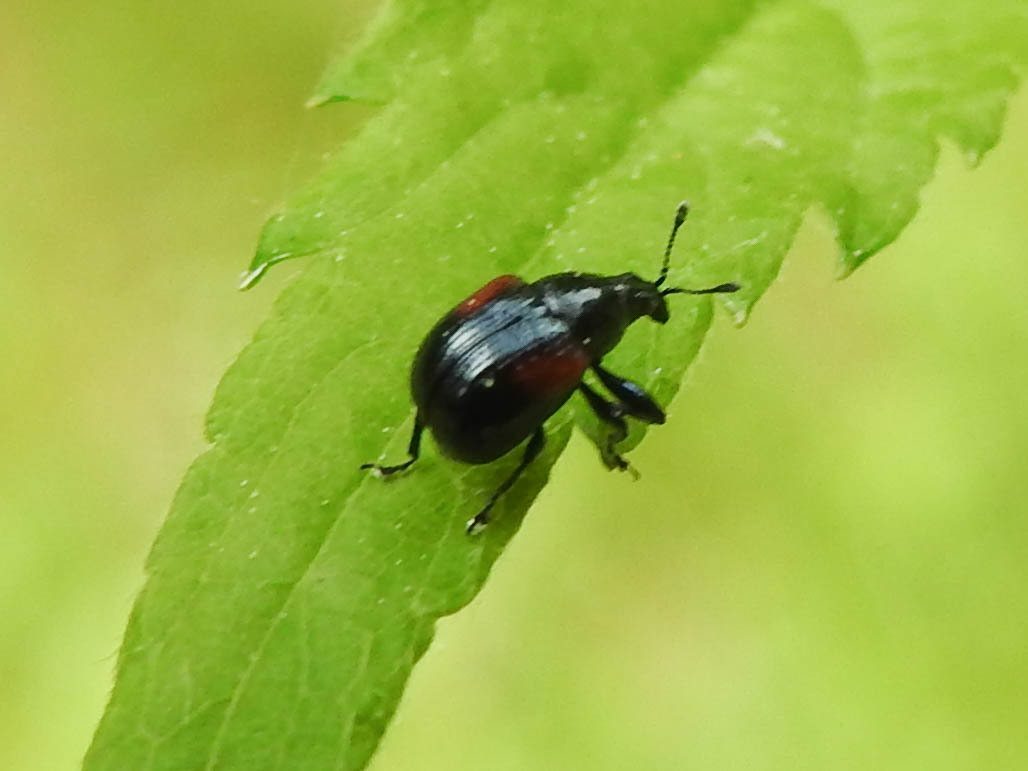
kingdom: Animalia
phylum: Arthropoda
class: Insecta
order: Coleoptera
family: Attelabidae
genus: Attelabus
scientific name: Attelabus bipustulatus
